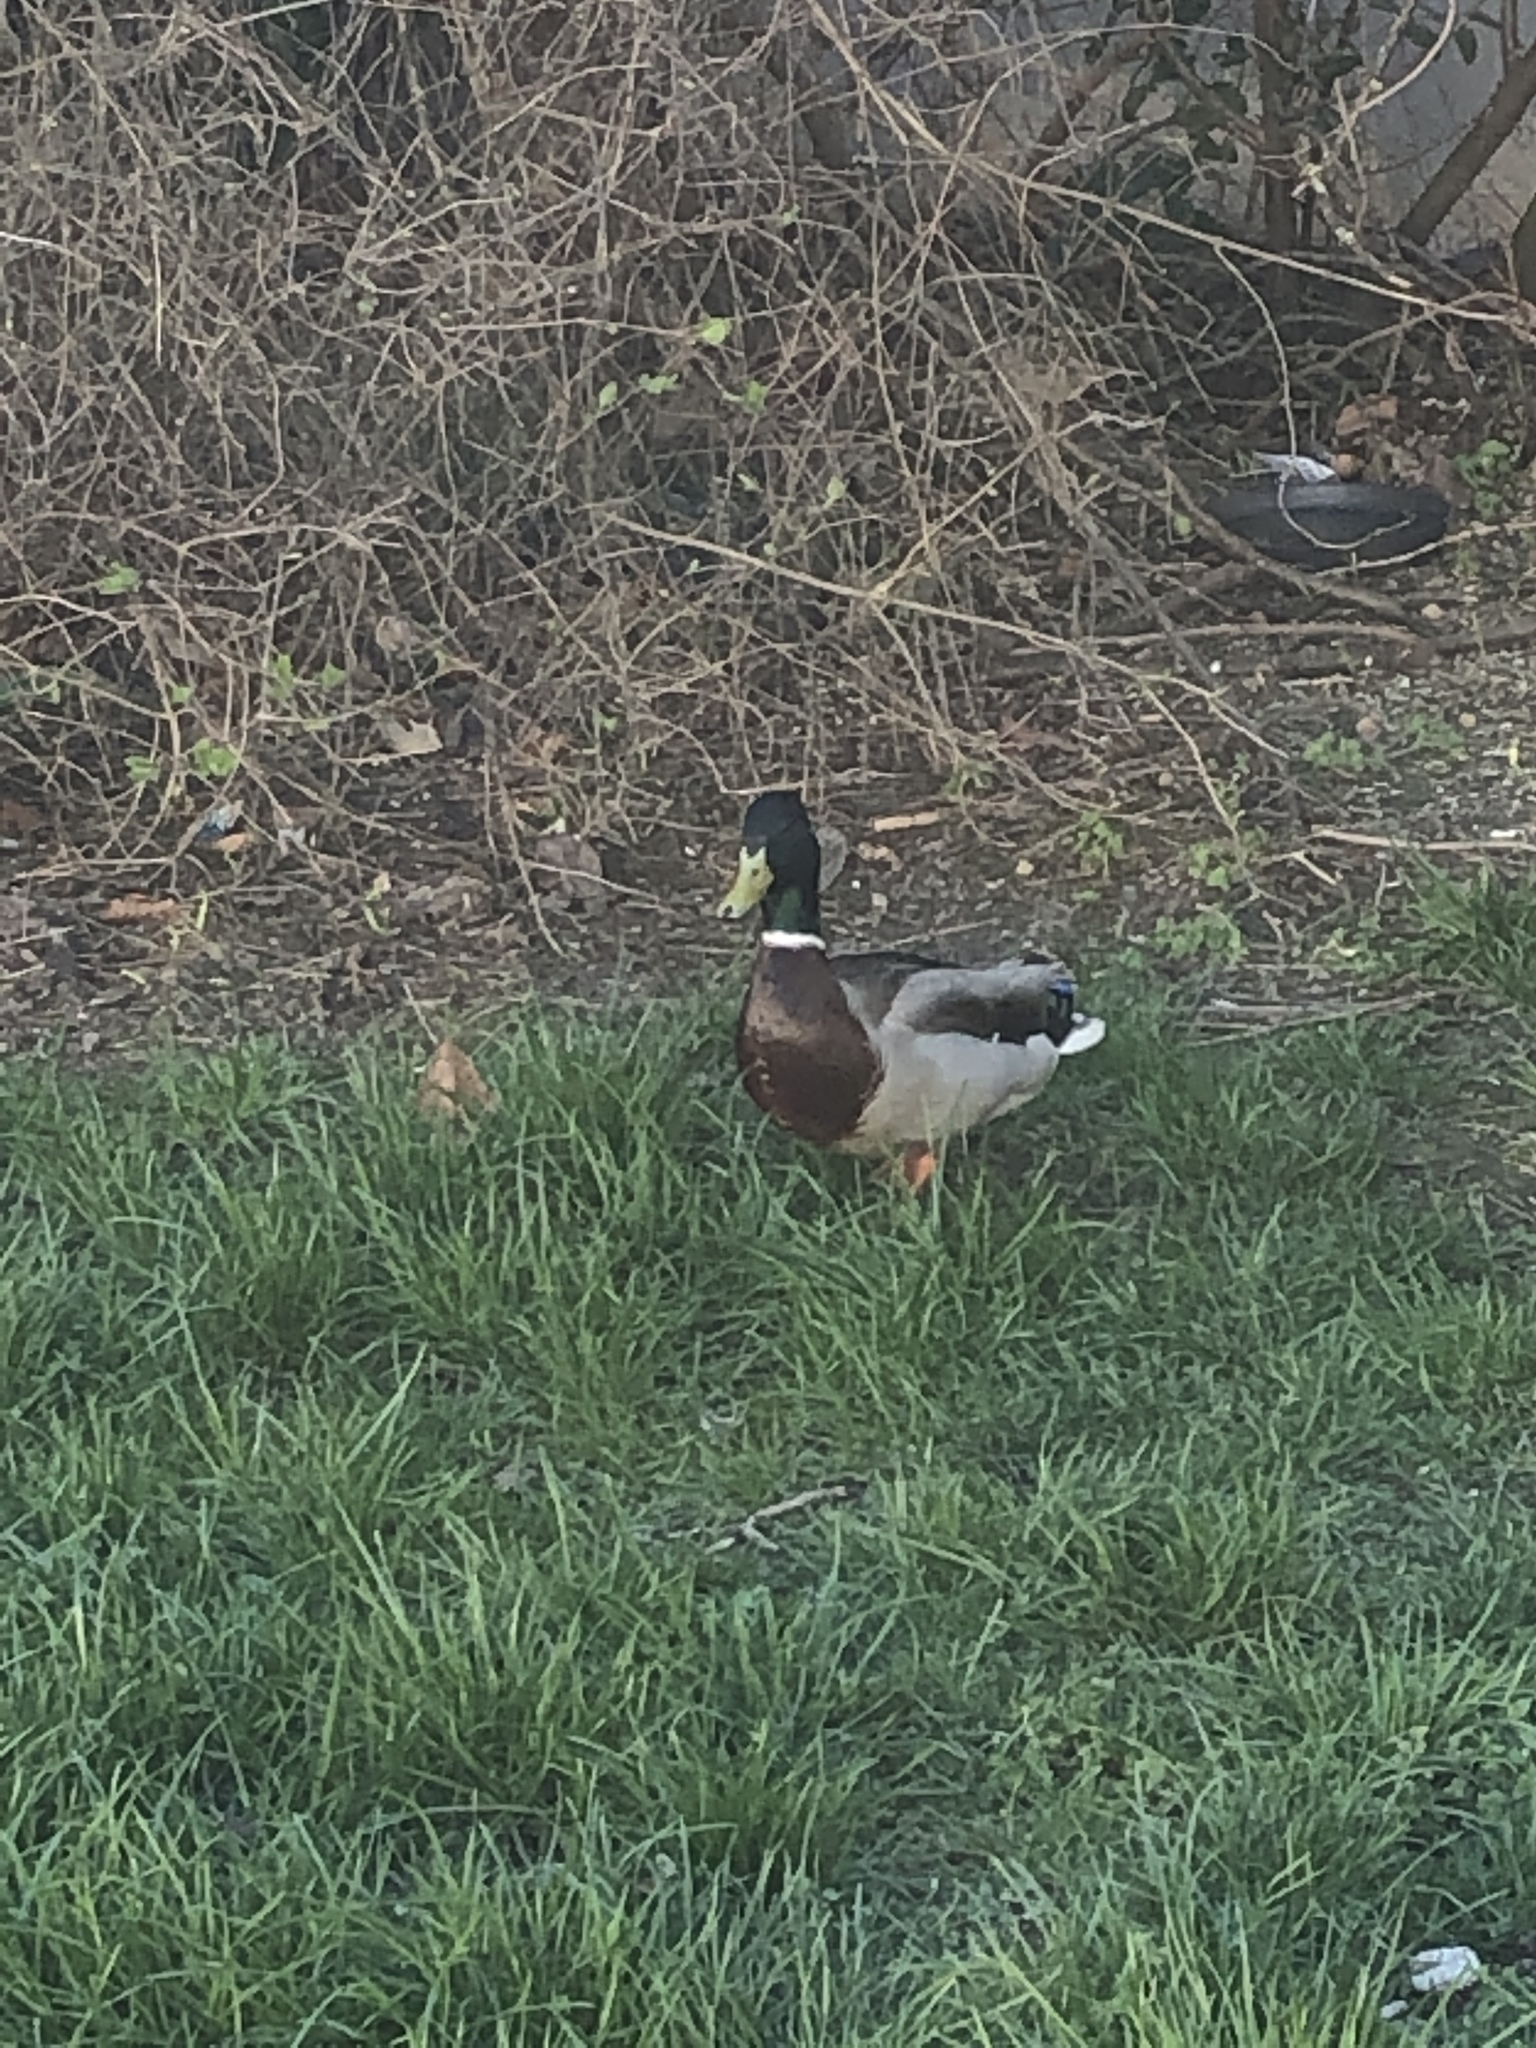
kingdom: Animalia
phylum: Chordata
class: Aves
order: Anseriformes
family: Anatidae
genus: Anas
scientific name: Anas platyrhynchos
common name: Mallard
